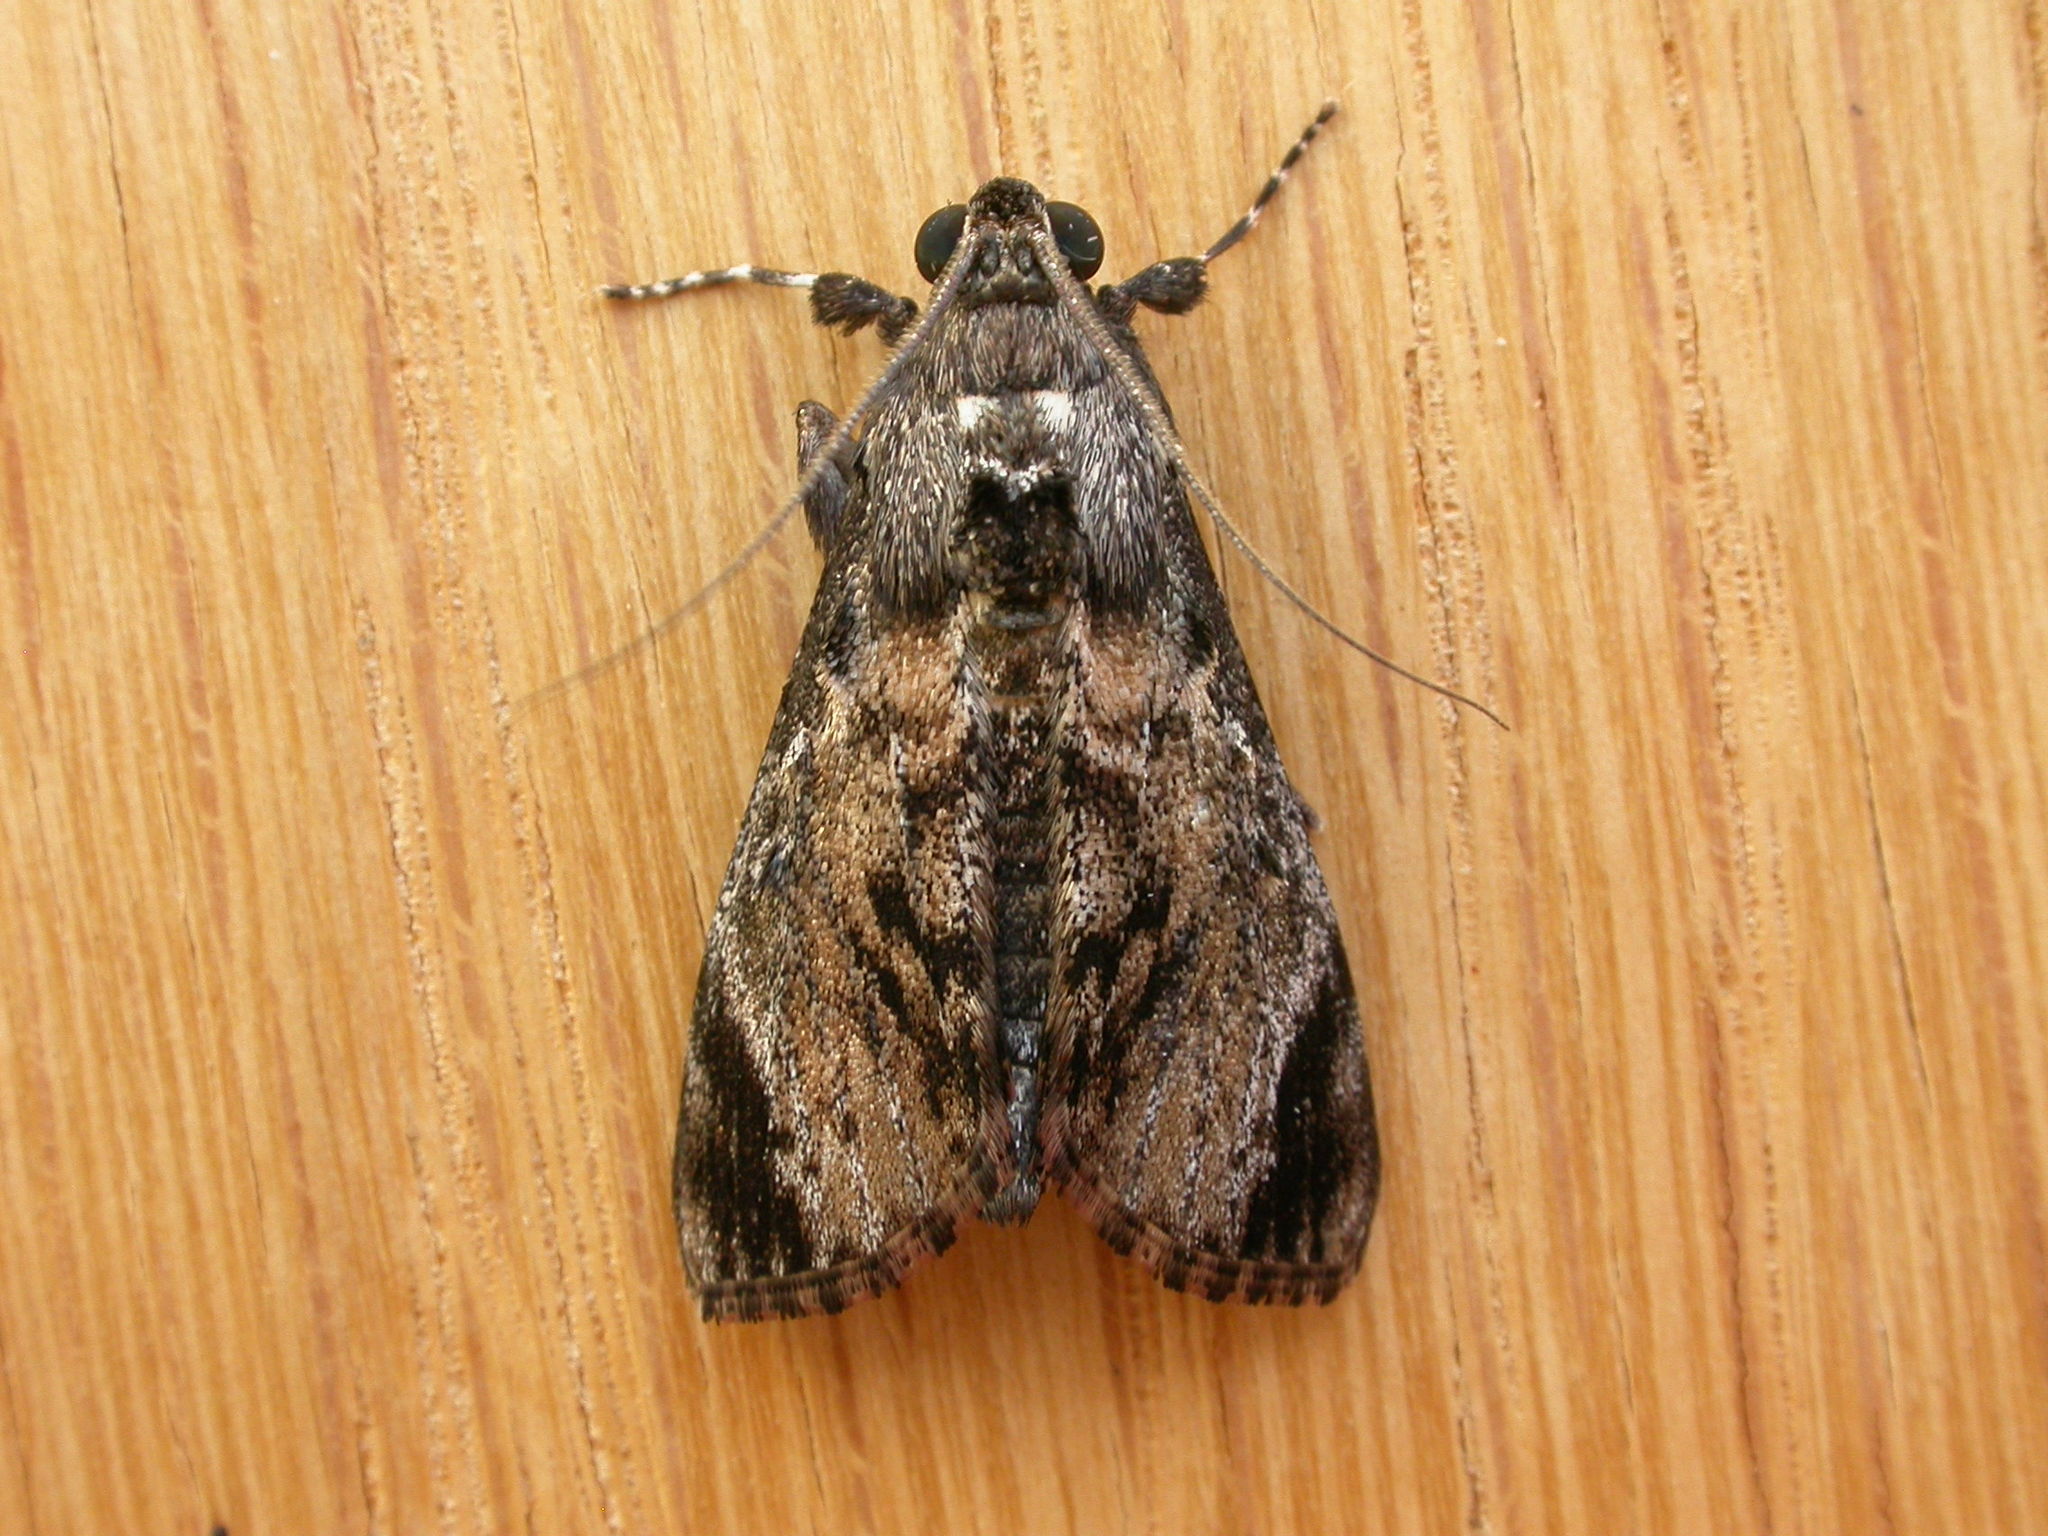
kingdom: Animalia
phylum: Arthropoda
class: Insecta
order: Lepidoptera
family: Pyralidae
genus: Salma
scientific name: Salma pyrastis
